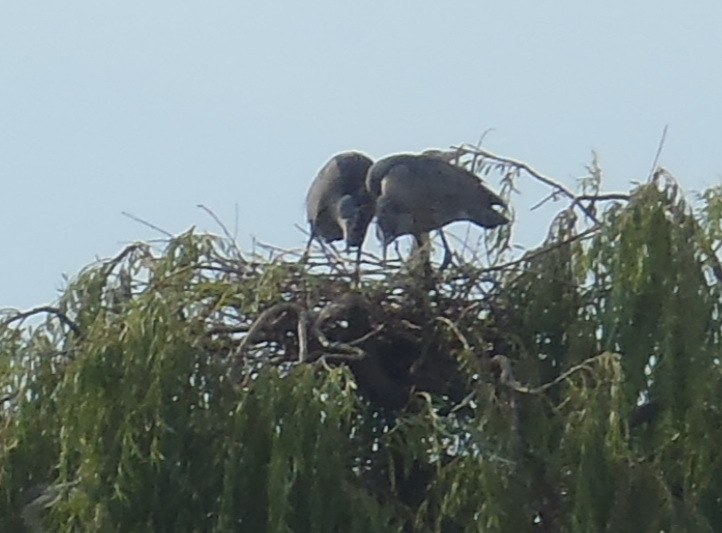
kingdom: Animalia
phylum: Chordata
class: Aves
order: Pelecaniformes
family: Threskiornithidae
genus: Bostrychia
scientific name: Bostrychia hagedash
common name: Hadada ibis
